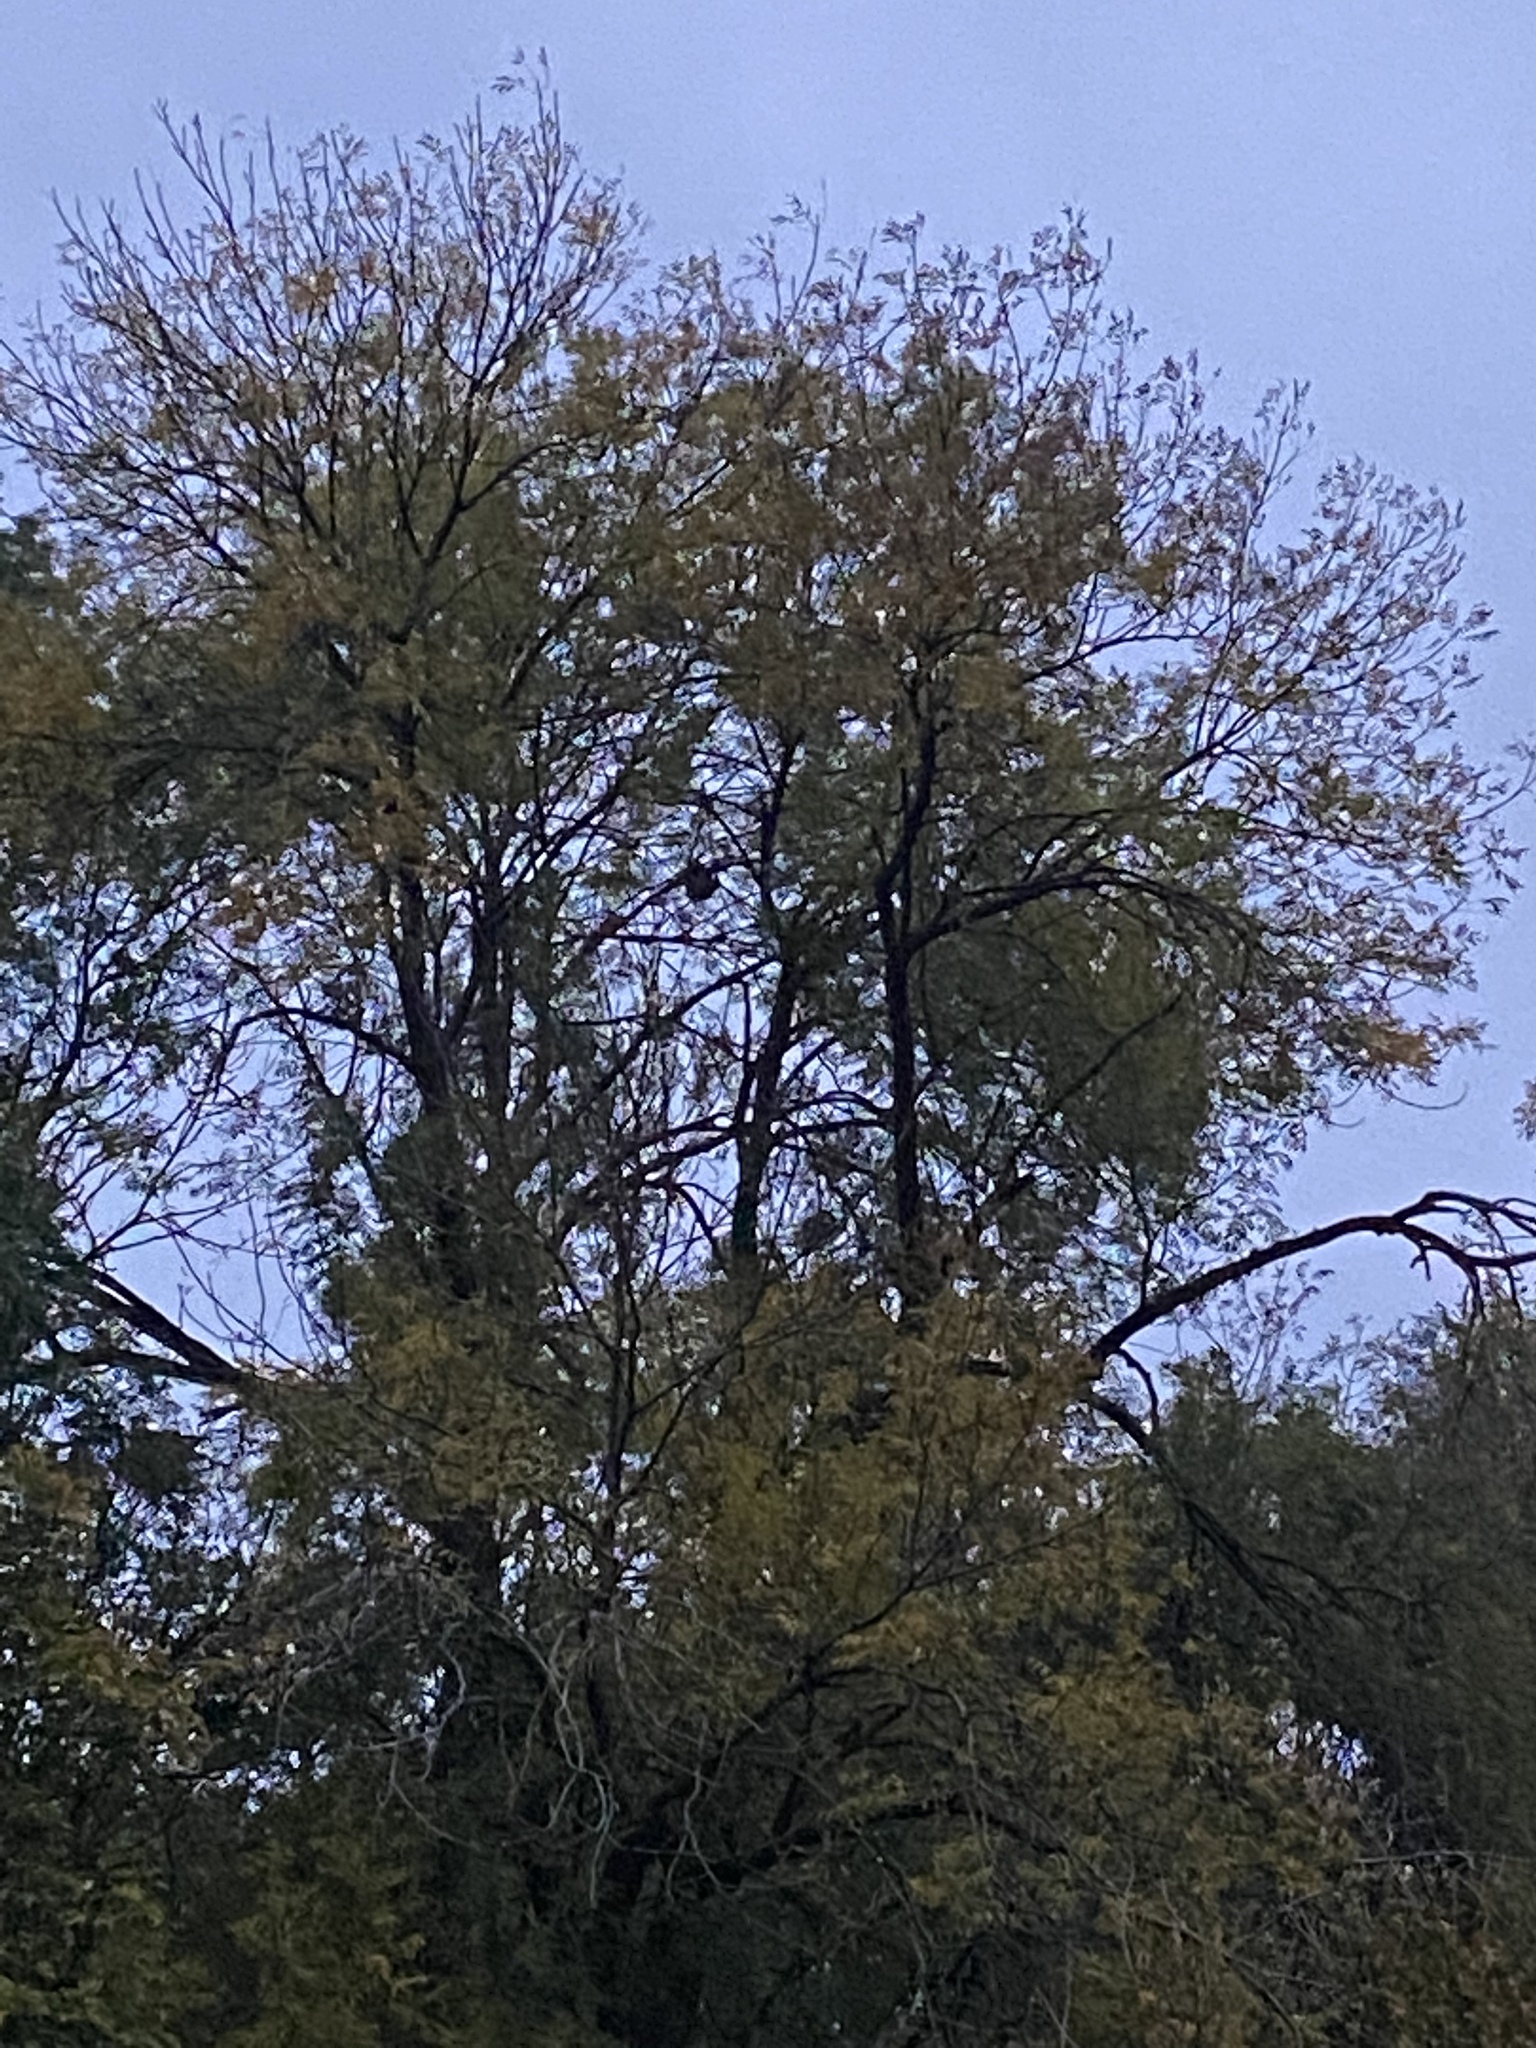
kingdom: Animalia
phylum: Arthropoda
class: Insecta
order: Hymenoptera
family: Vespidae
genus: Vespa
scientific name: Vespa velutina
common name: Asian hornet
